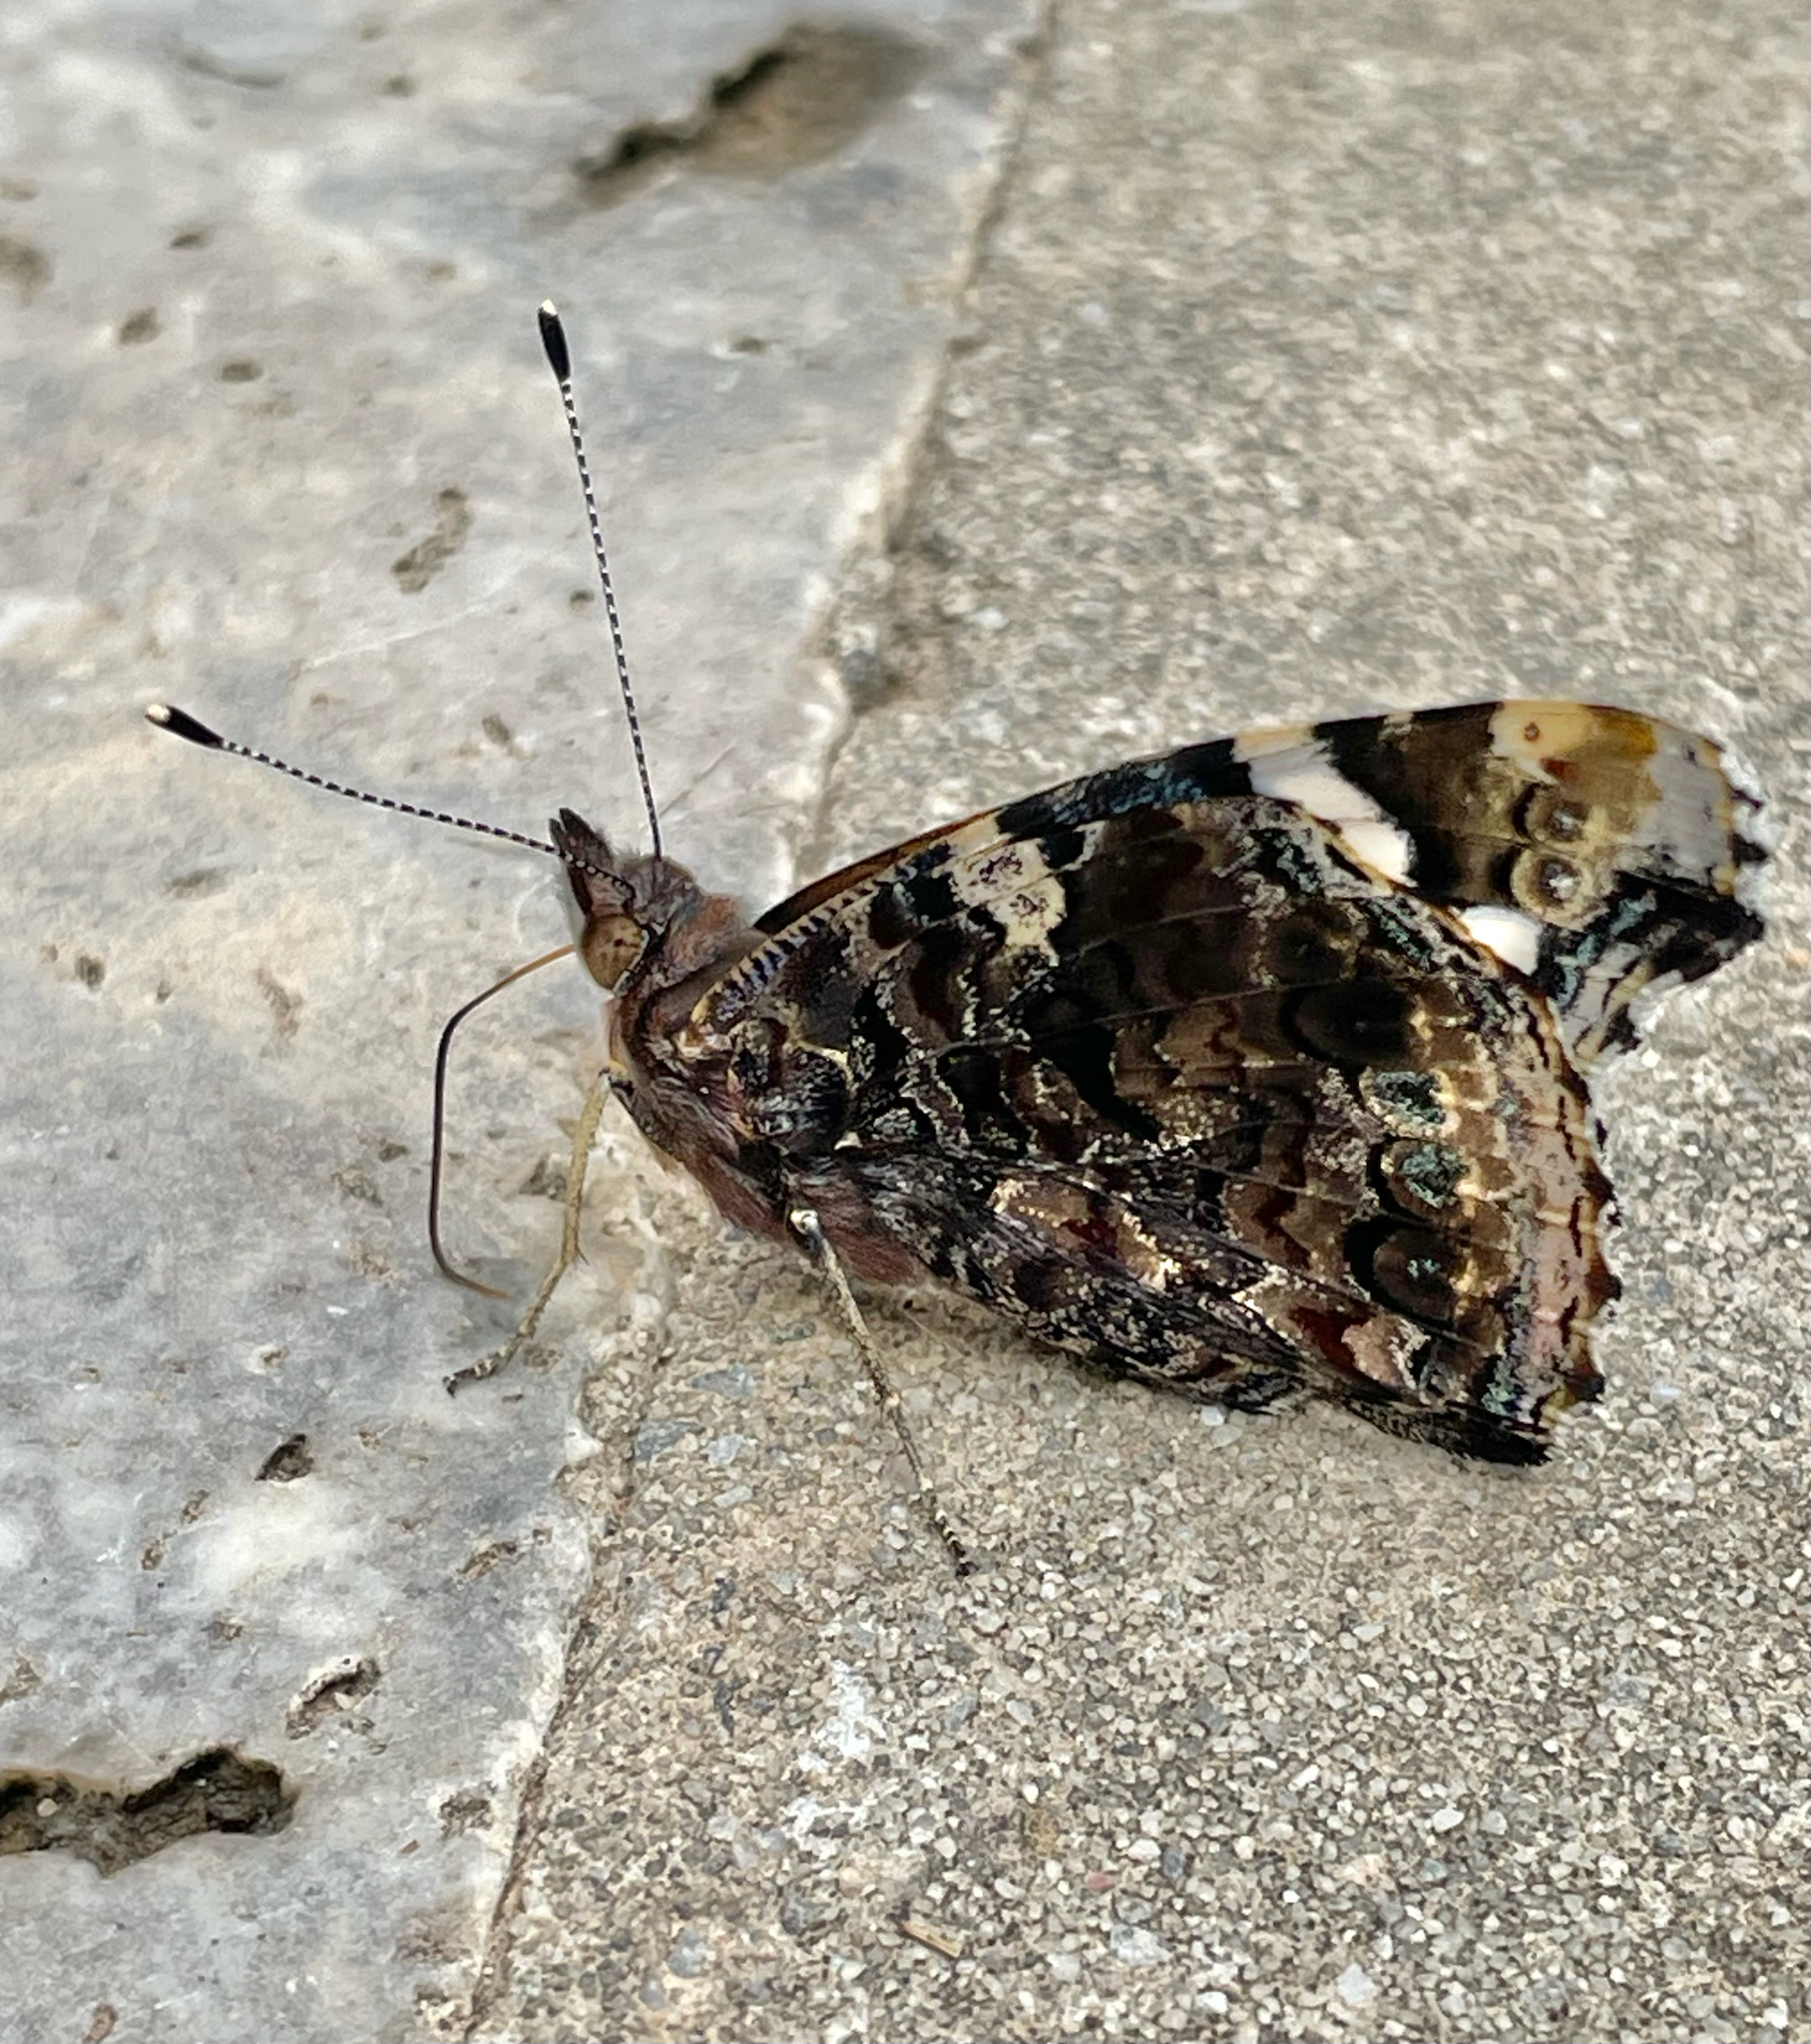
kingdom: Animalia
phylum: Arthropoda
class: Insecta
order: Lepidoptera
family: Nymphalidae
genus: Vanessa
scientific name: Vanessa atalanta
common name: Red admiral
